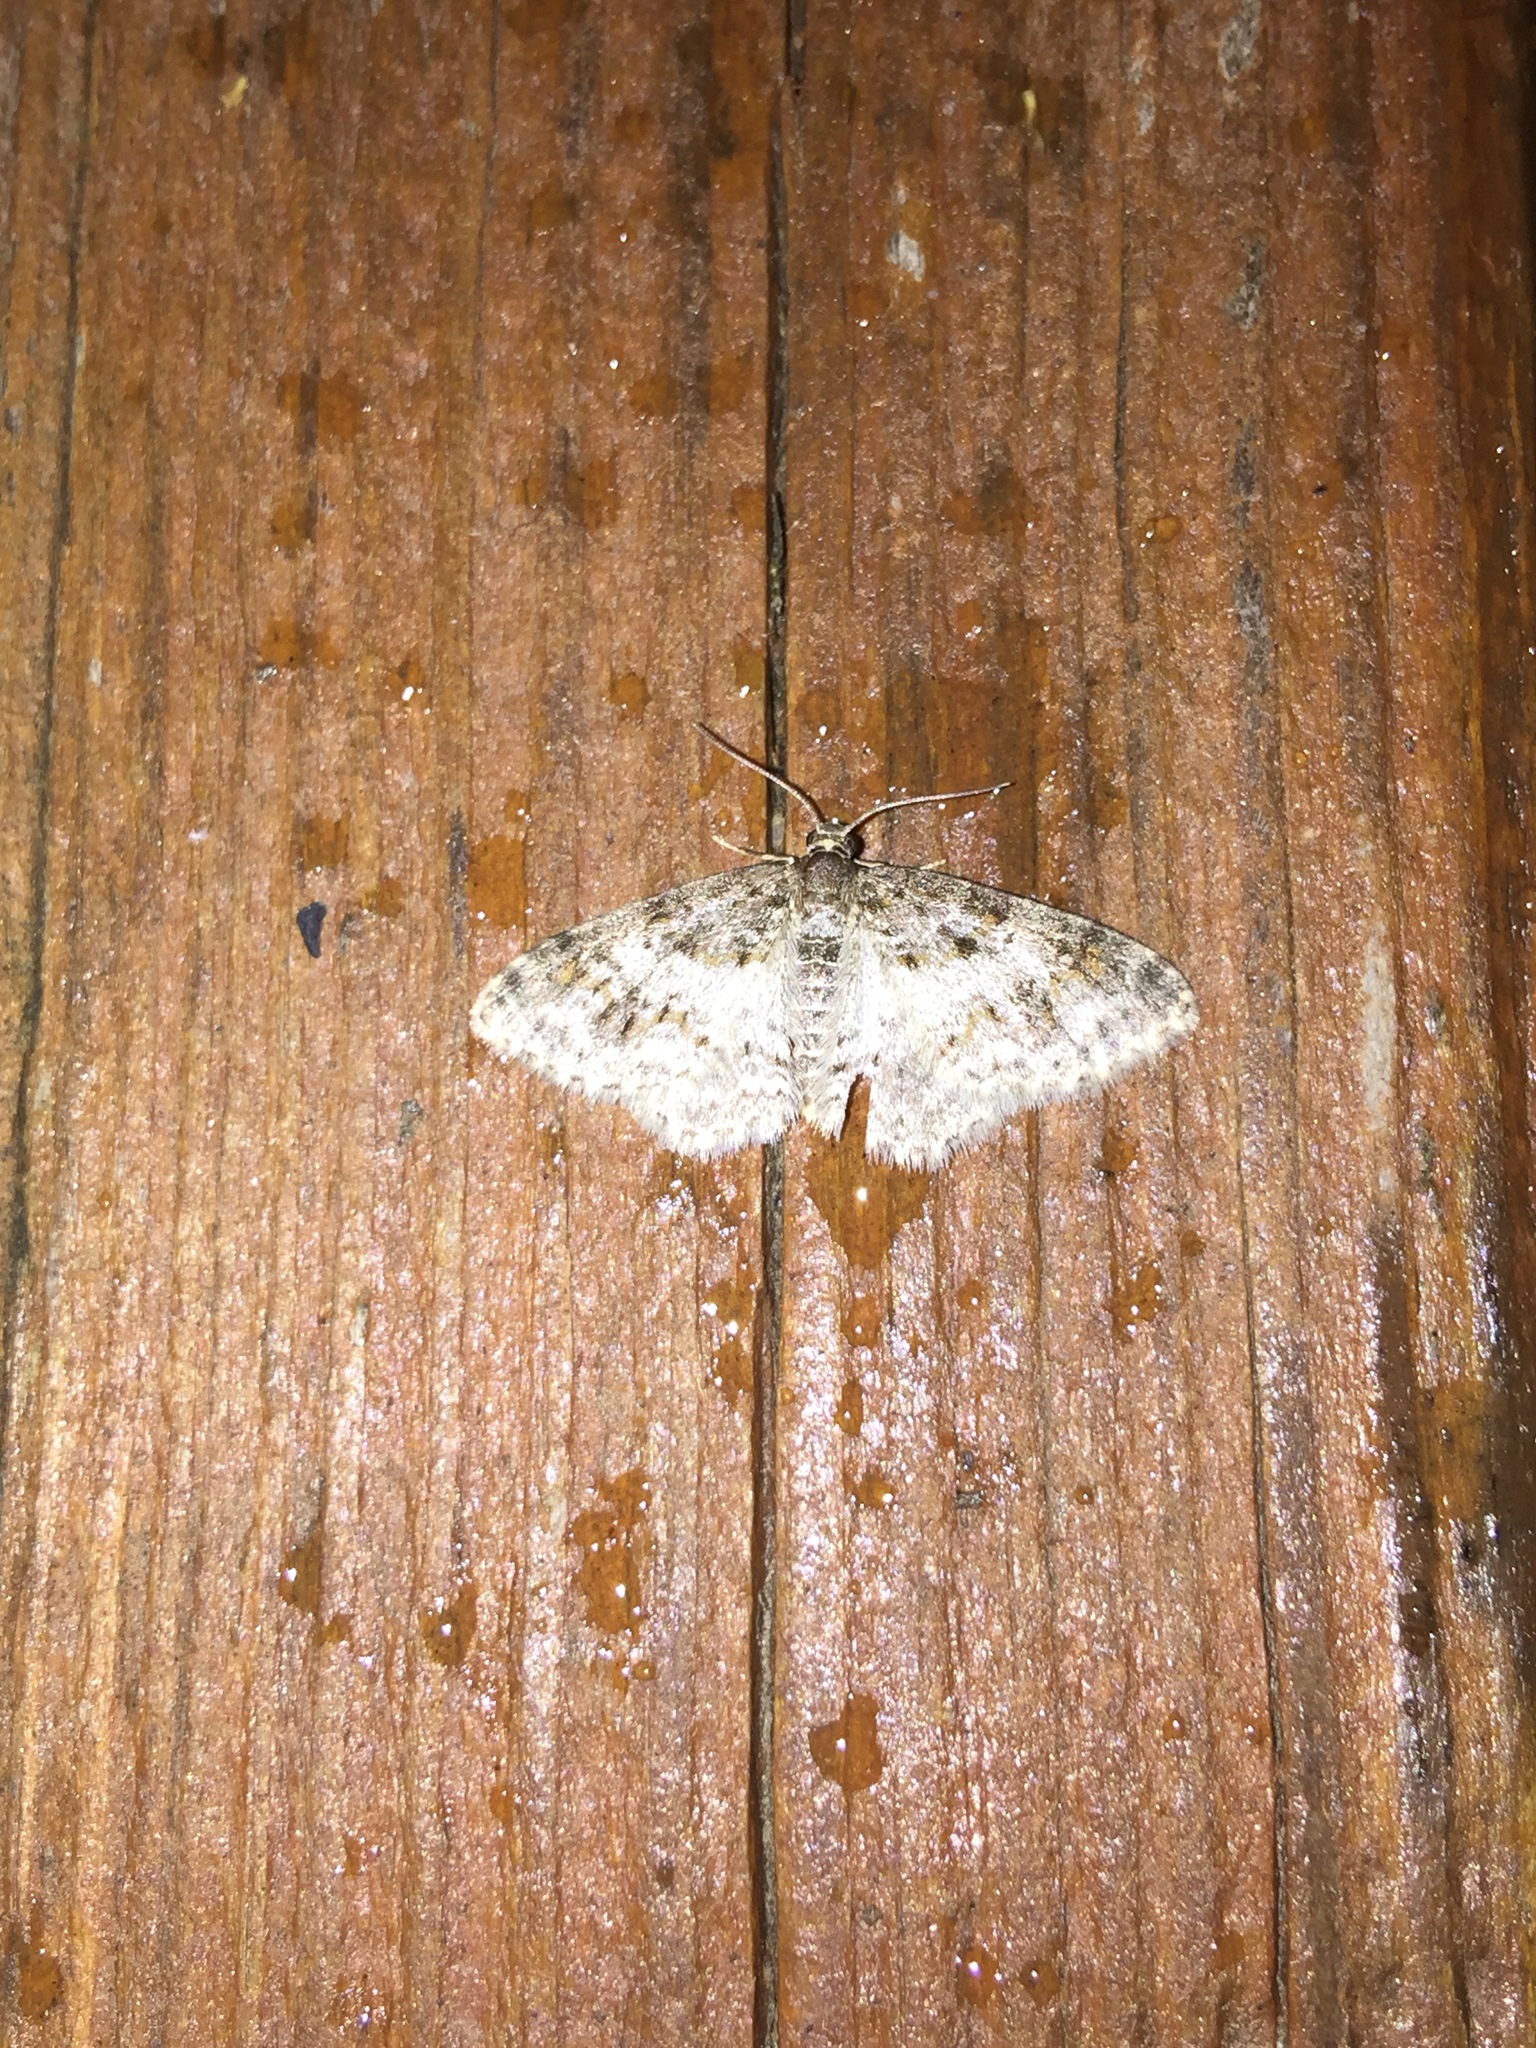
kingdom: Animalia
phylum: Arthropoda
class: Insecta
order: Lepidoptera
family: Geometridae
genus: Hydrelia
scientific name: Hydrelia inornata
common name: Unadorned carpet moth
